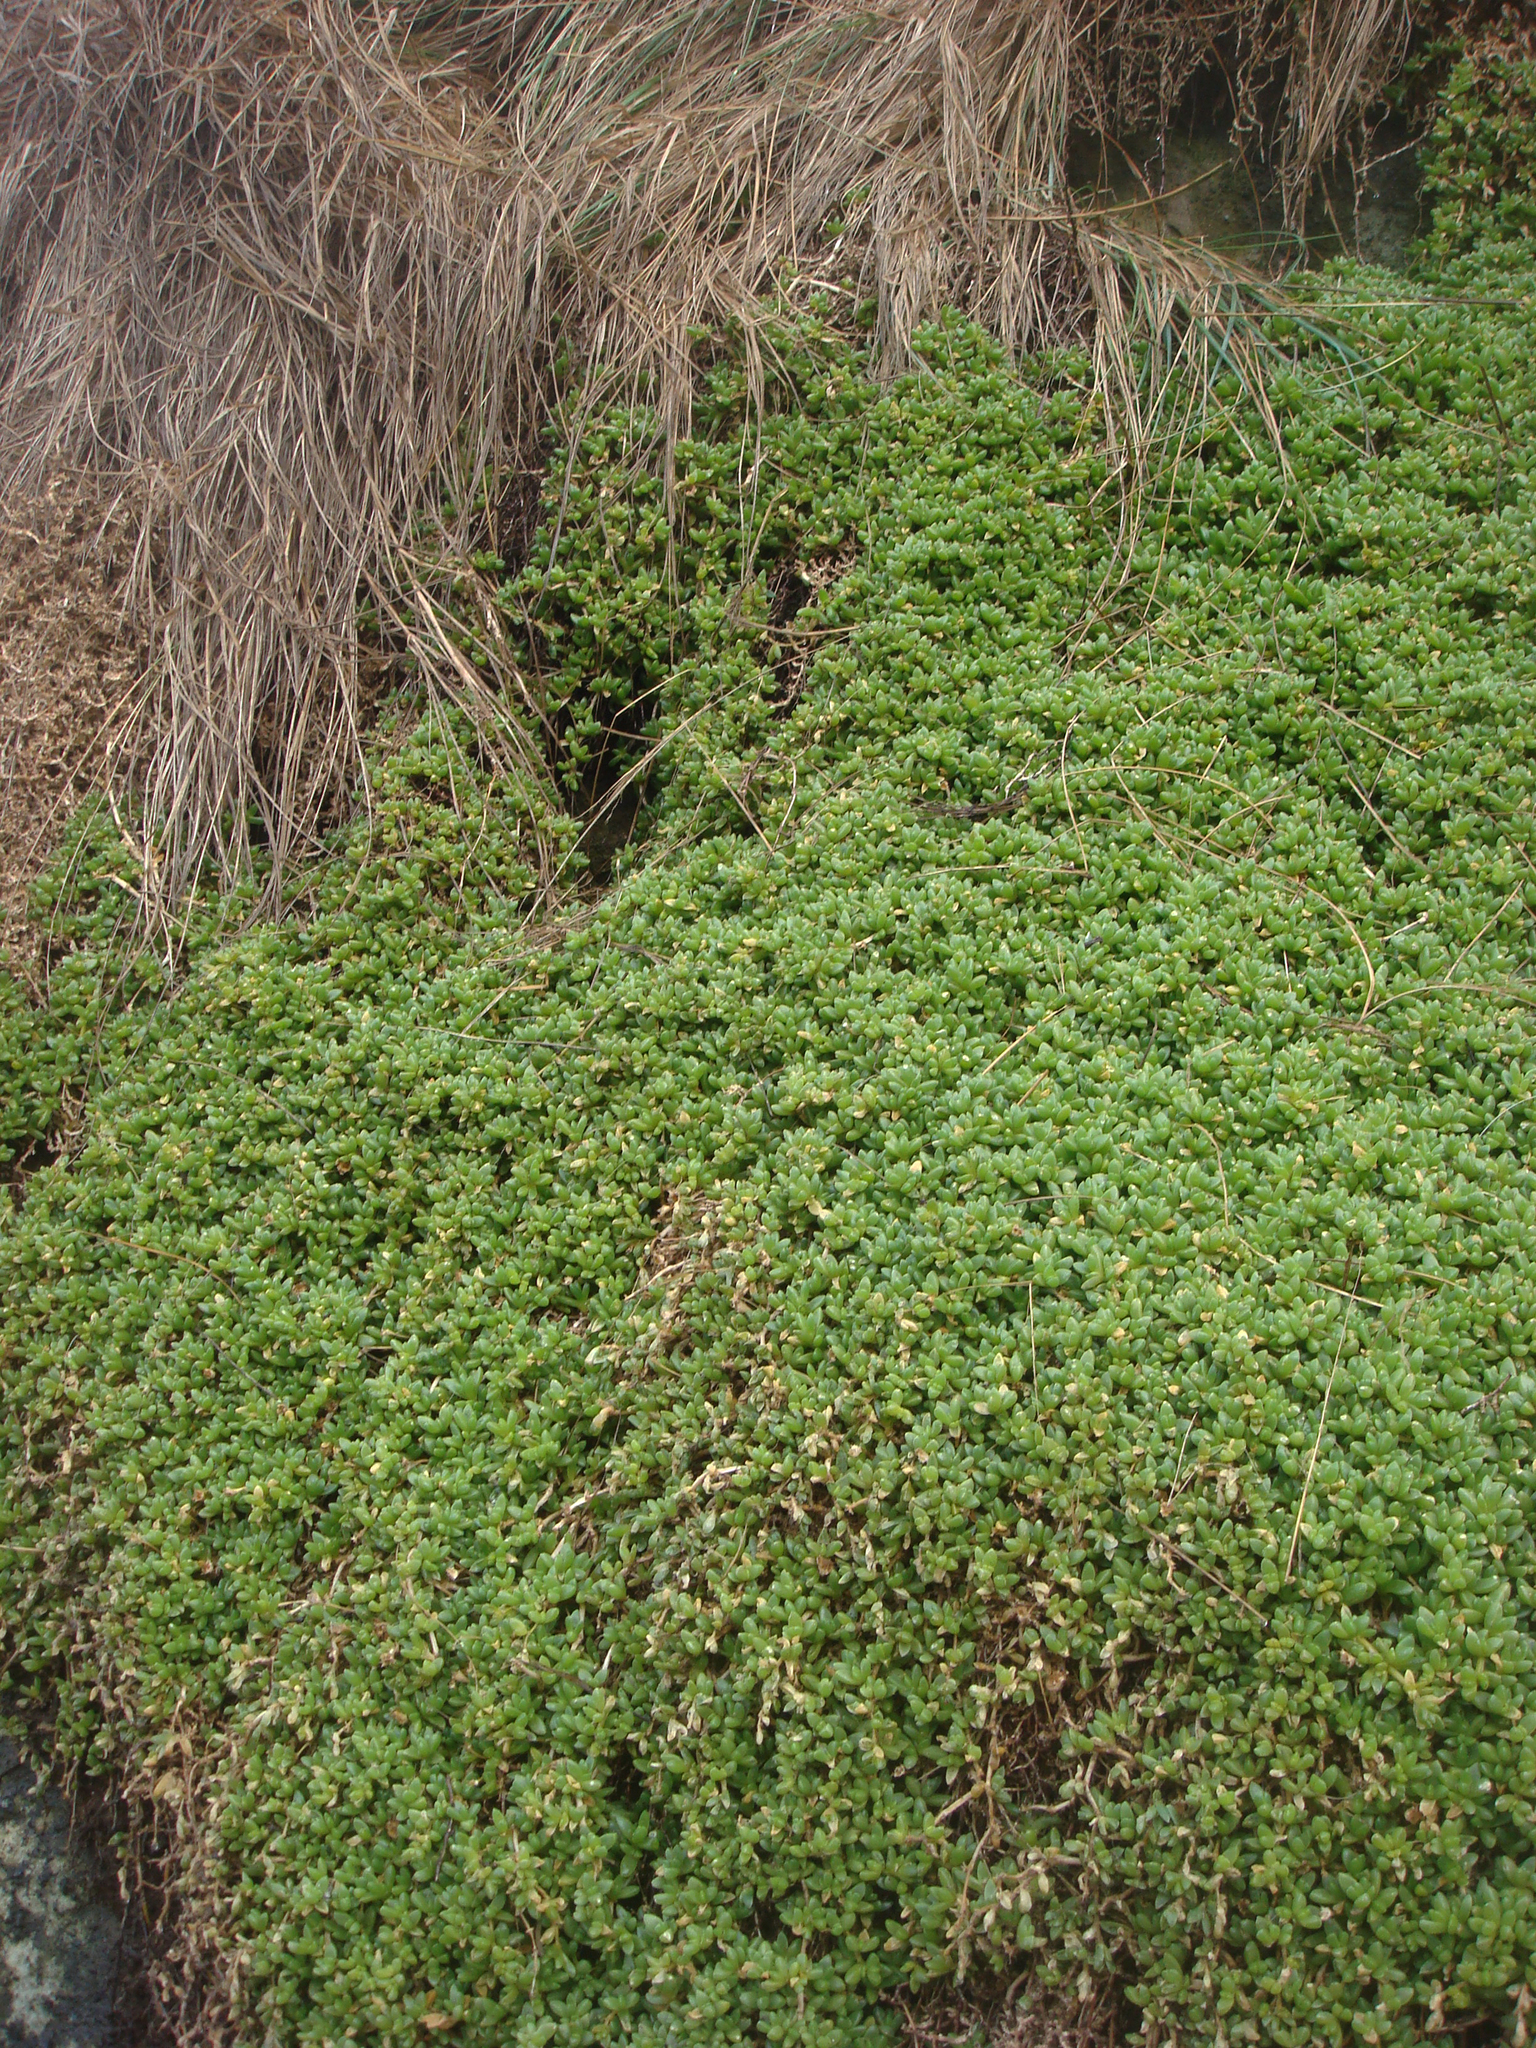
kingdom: Plantae
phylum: Tracheophyta
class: Magnoliopsida
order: Caryophyllales
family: Aizoaceae
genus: Disphyma
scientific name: Disphyma papillatum
